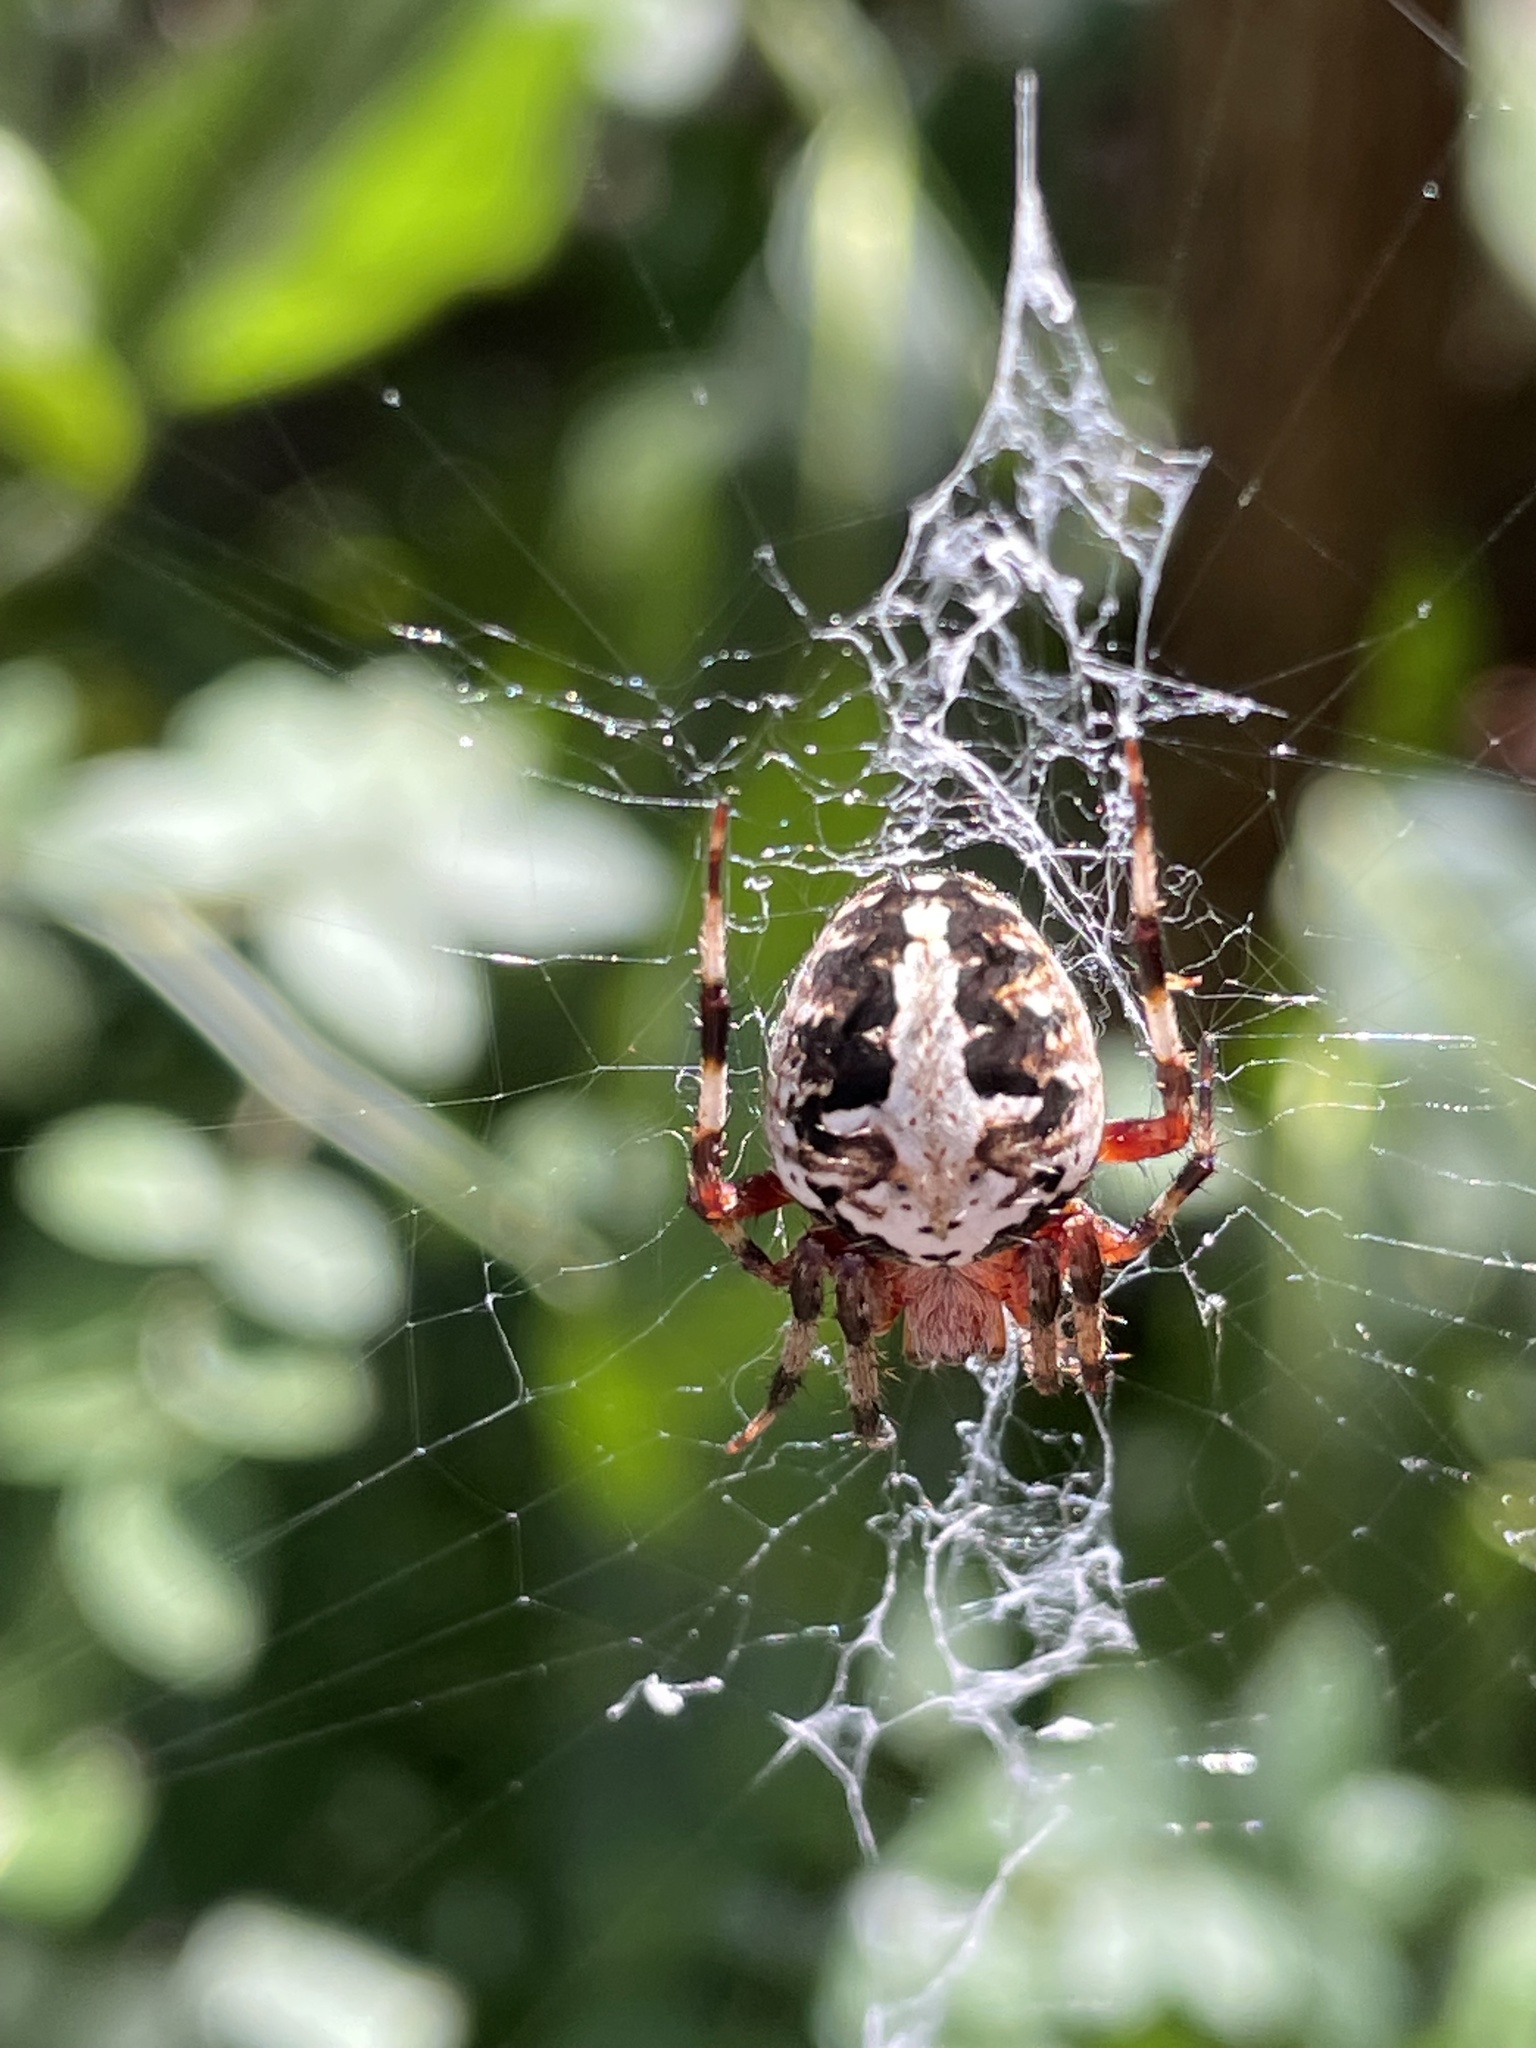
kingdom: Animalia
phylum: Arthropoda
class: Arachnida
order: Araneae
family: Araneidae
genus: Neoscona
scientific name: Neoscona domiciliorum
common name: Red-femured spotted orbweaver
